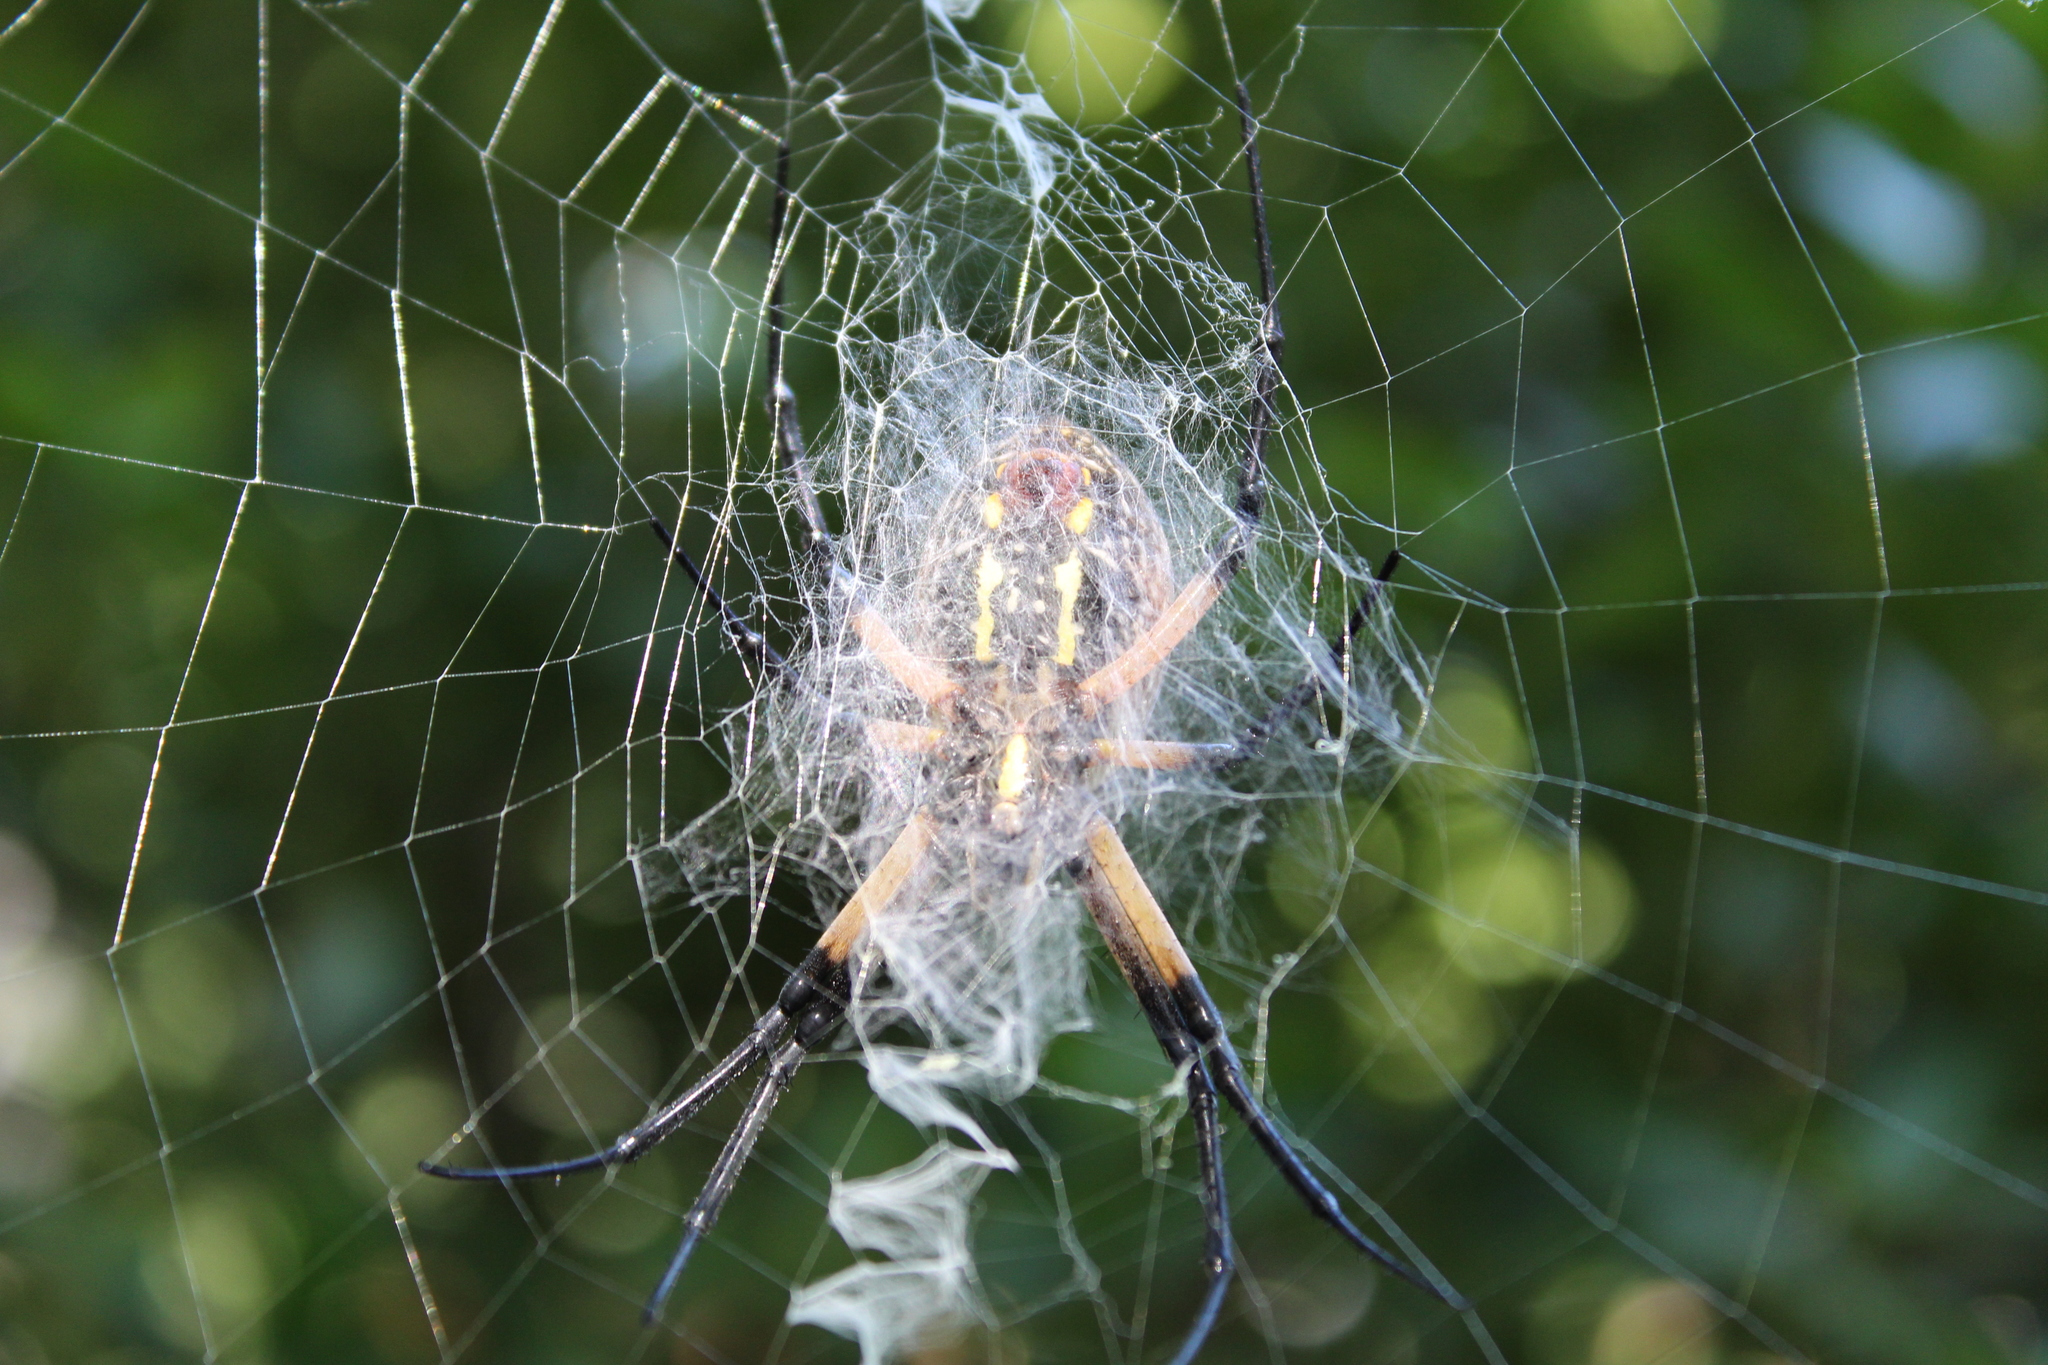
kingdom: Animalia
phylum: Arthropoda
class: Arachnida
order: Araneae
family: Araneidae
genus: Argiope
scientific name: Argiope aurantia
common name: Orb weavers
